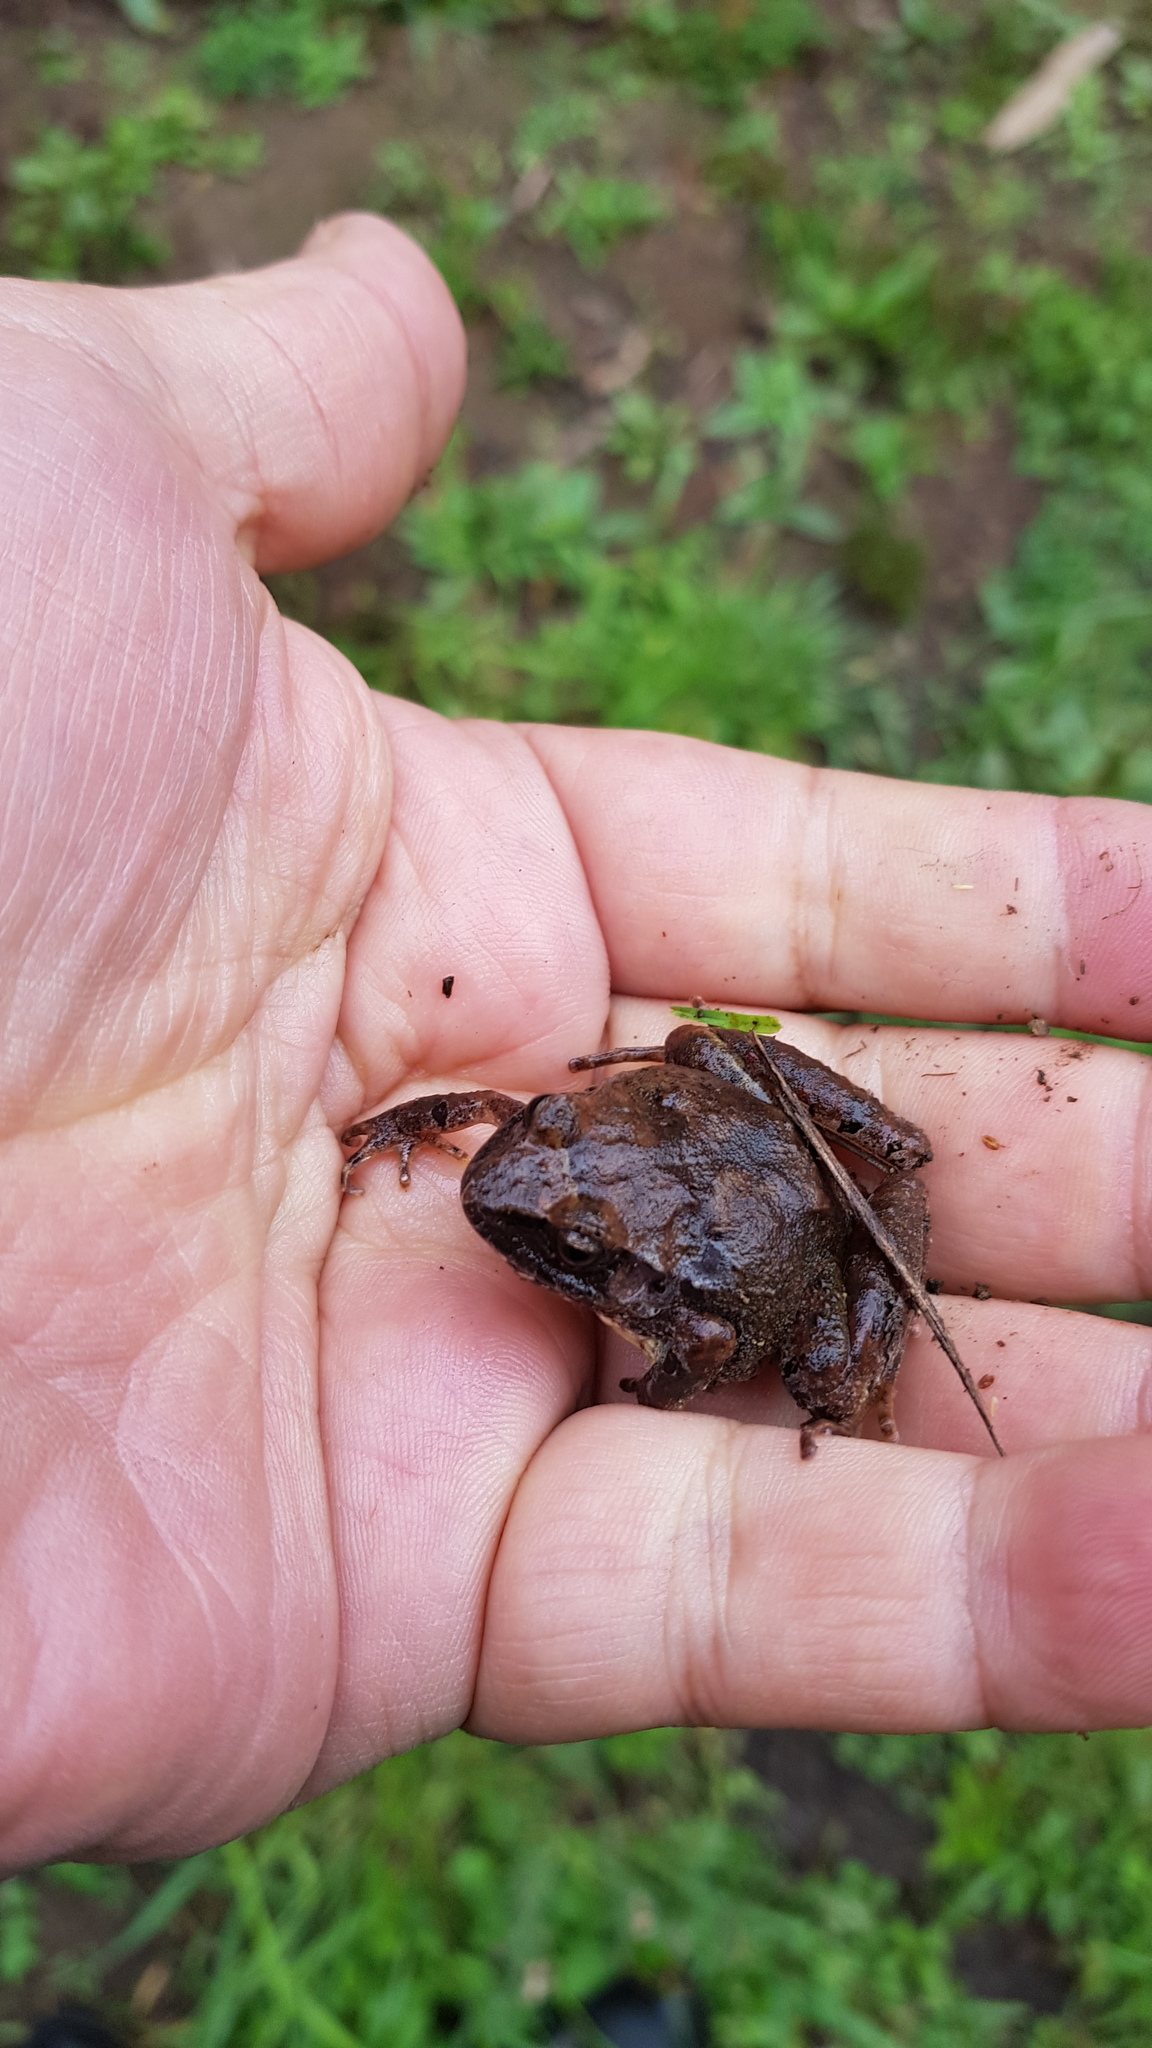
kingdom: Animalia
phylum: Chordata
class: Amphibia
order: Anura
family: Craugastoridae
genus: Craugastor
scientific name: Craugastor mexicanus
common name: Mexican robber frog
